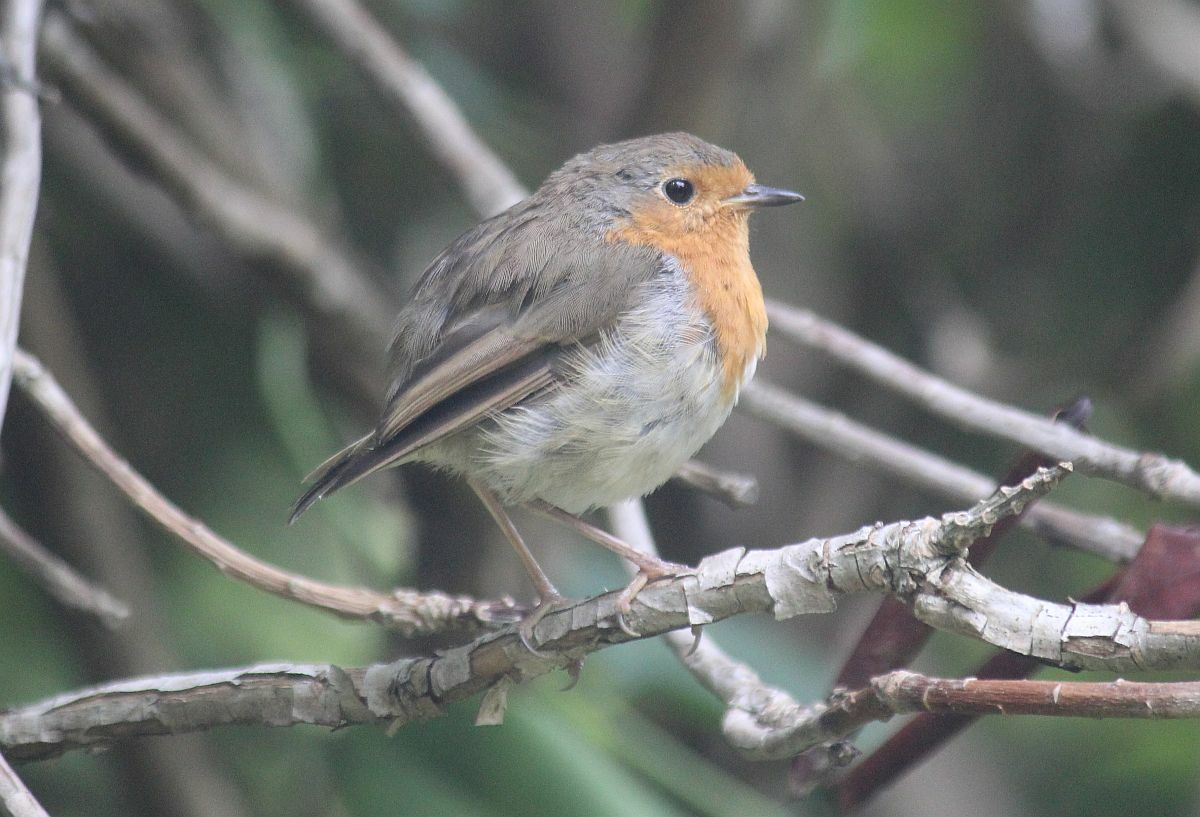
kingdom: Animalia
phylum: Chordata
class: Aves
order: Passeriformes
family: Muscicapidae
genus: Erithacus
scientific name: Erithacus rubecula
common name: European robin
